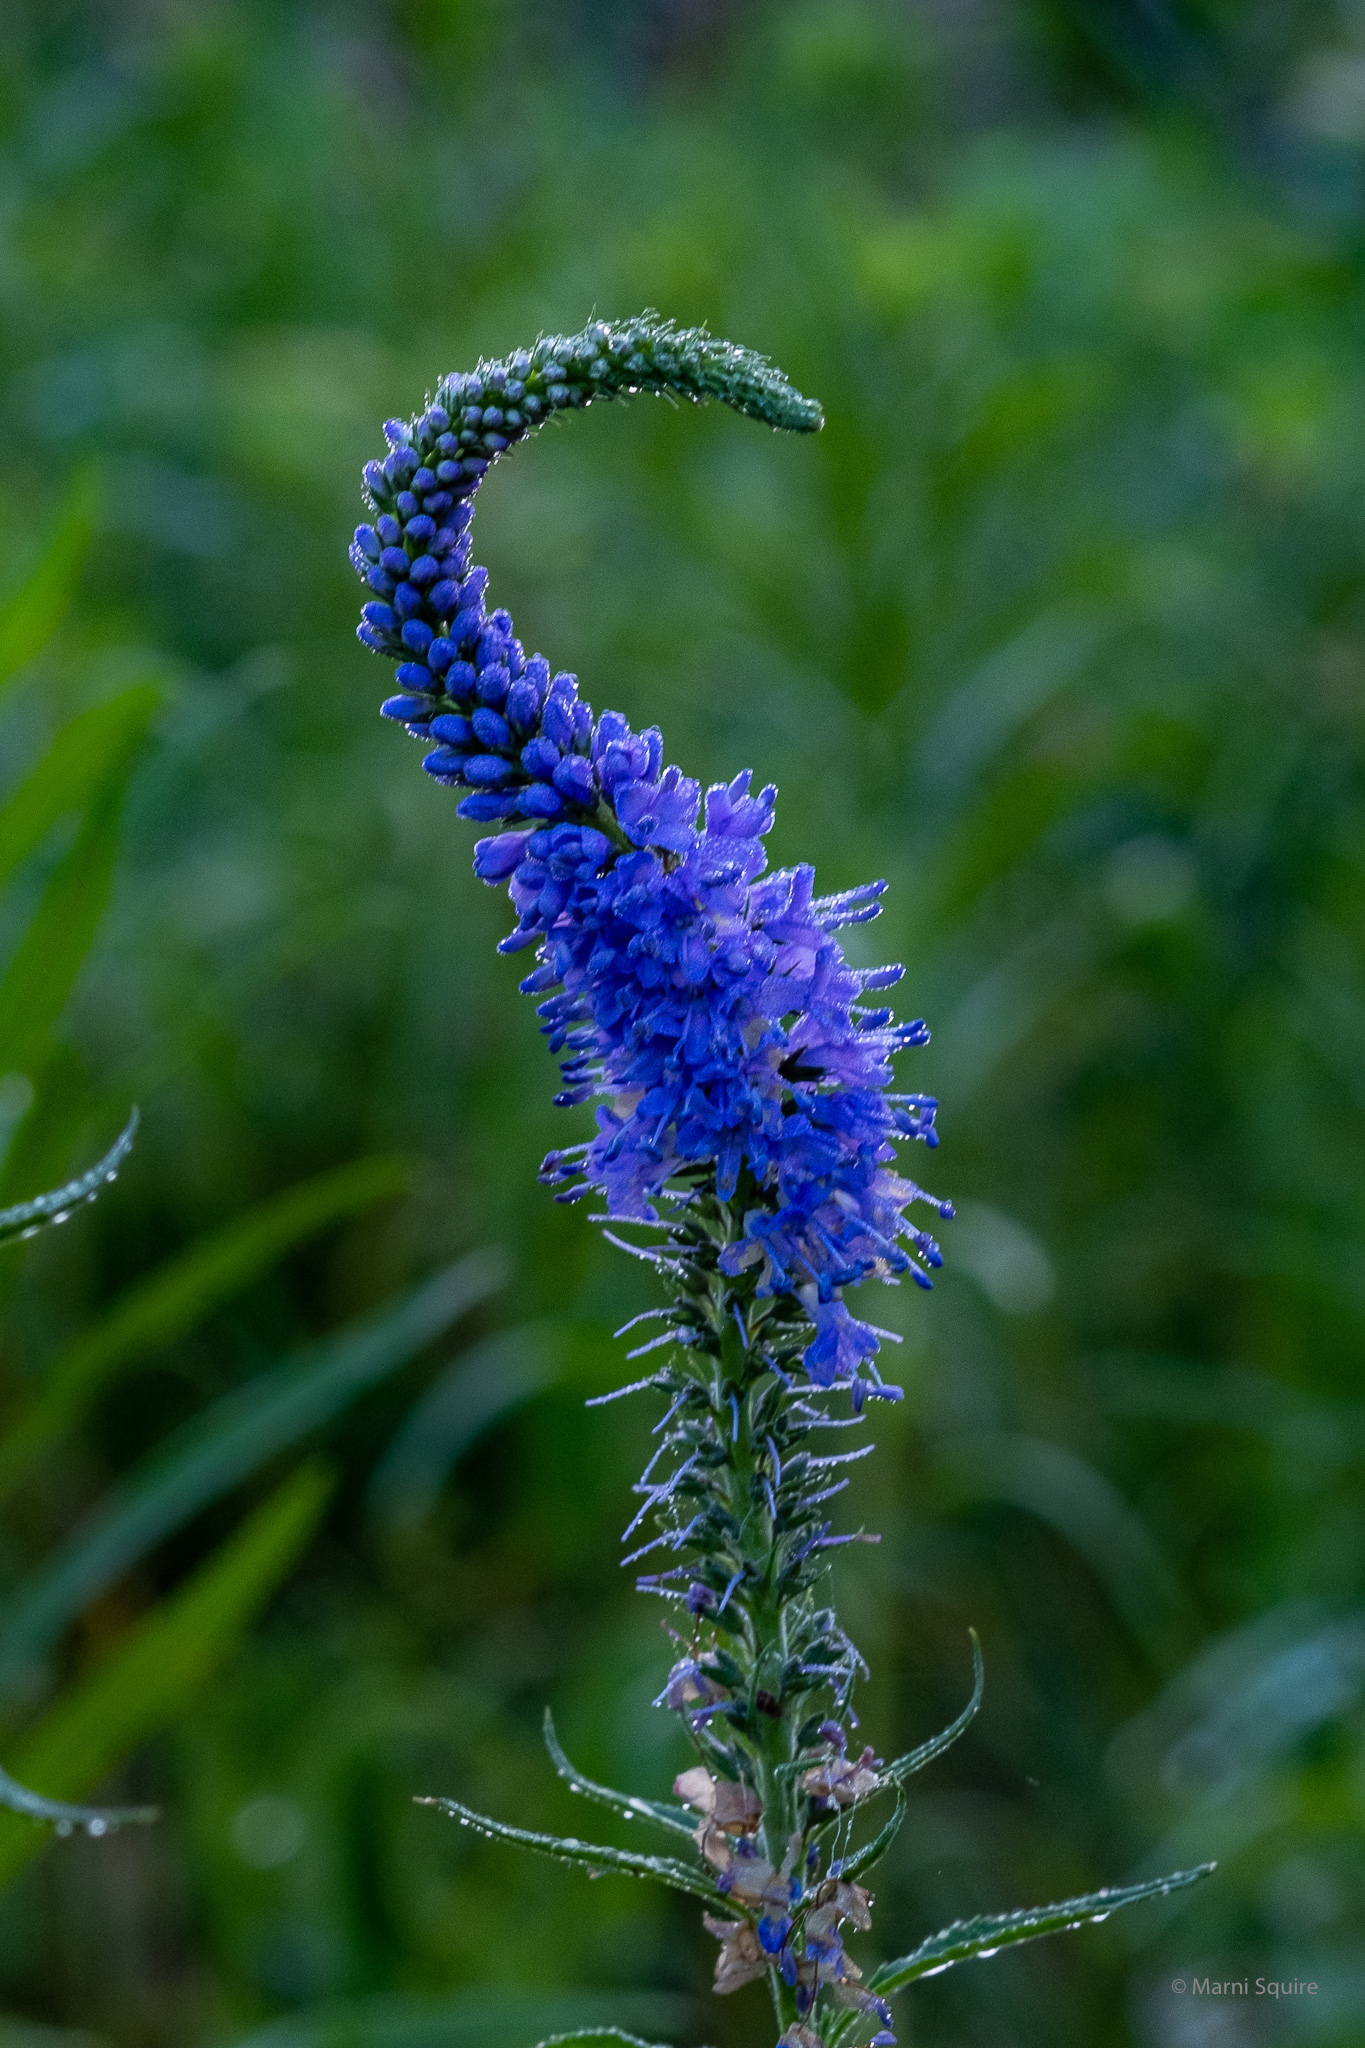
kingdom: Plantae
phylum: Tracheophyta
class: Magnoliopsida
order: Lamiales
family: Plantaginaceae
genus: Veronica
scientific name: Veronica longifolia
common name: Garden speedwell
